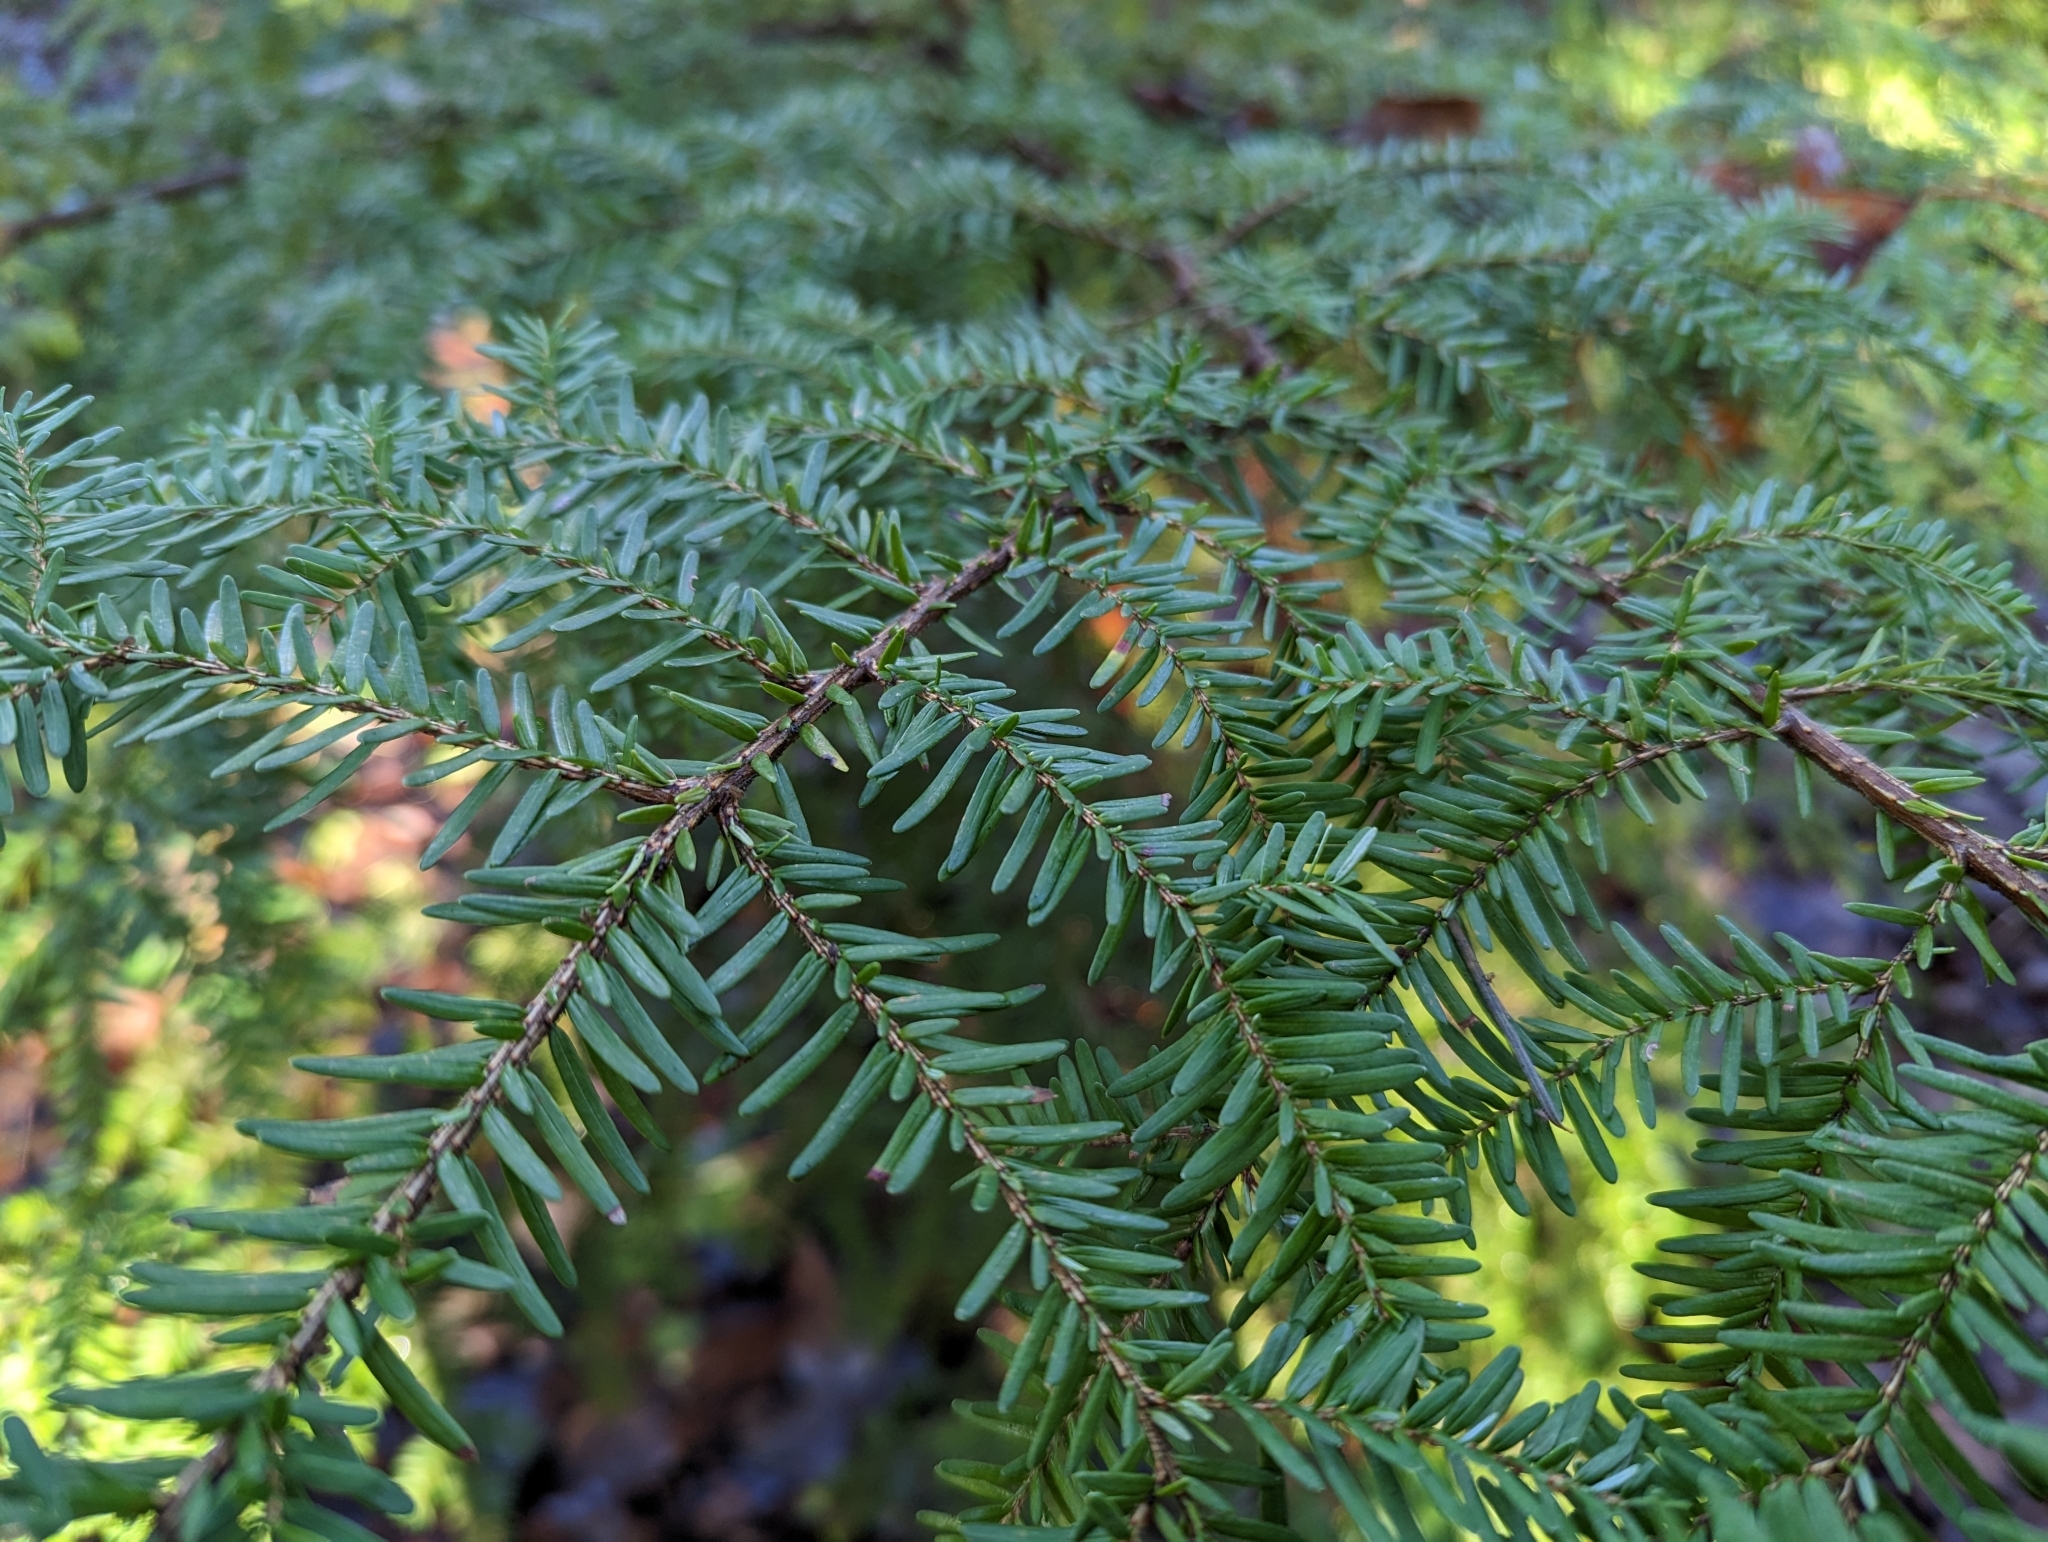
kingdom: Plantae
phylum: Tracheophyta
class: Pinopsida
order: Pinales
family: Pinaceae
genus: Tsuga
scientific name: Tsuga heterophylla
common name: Western hemlock
